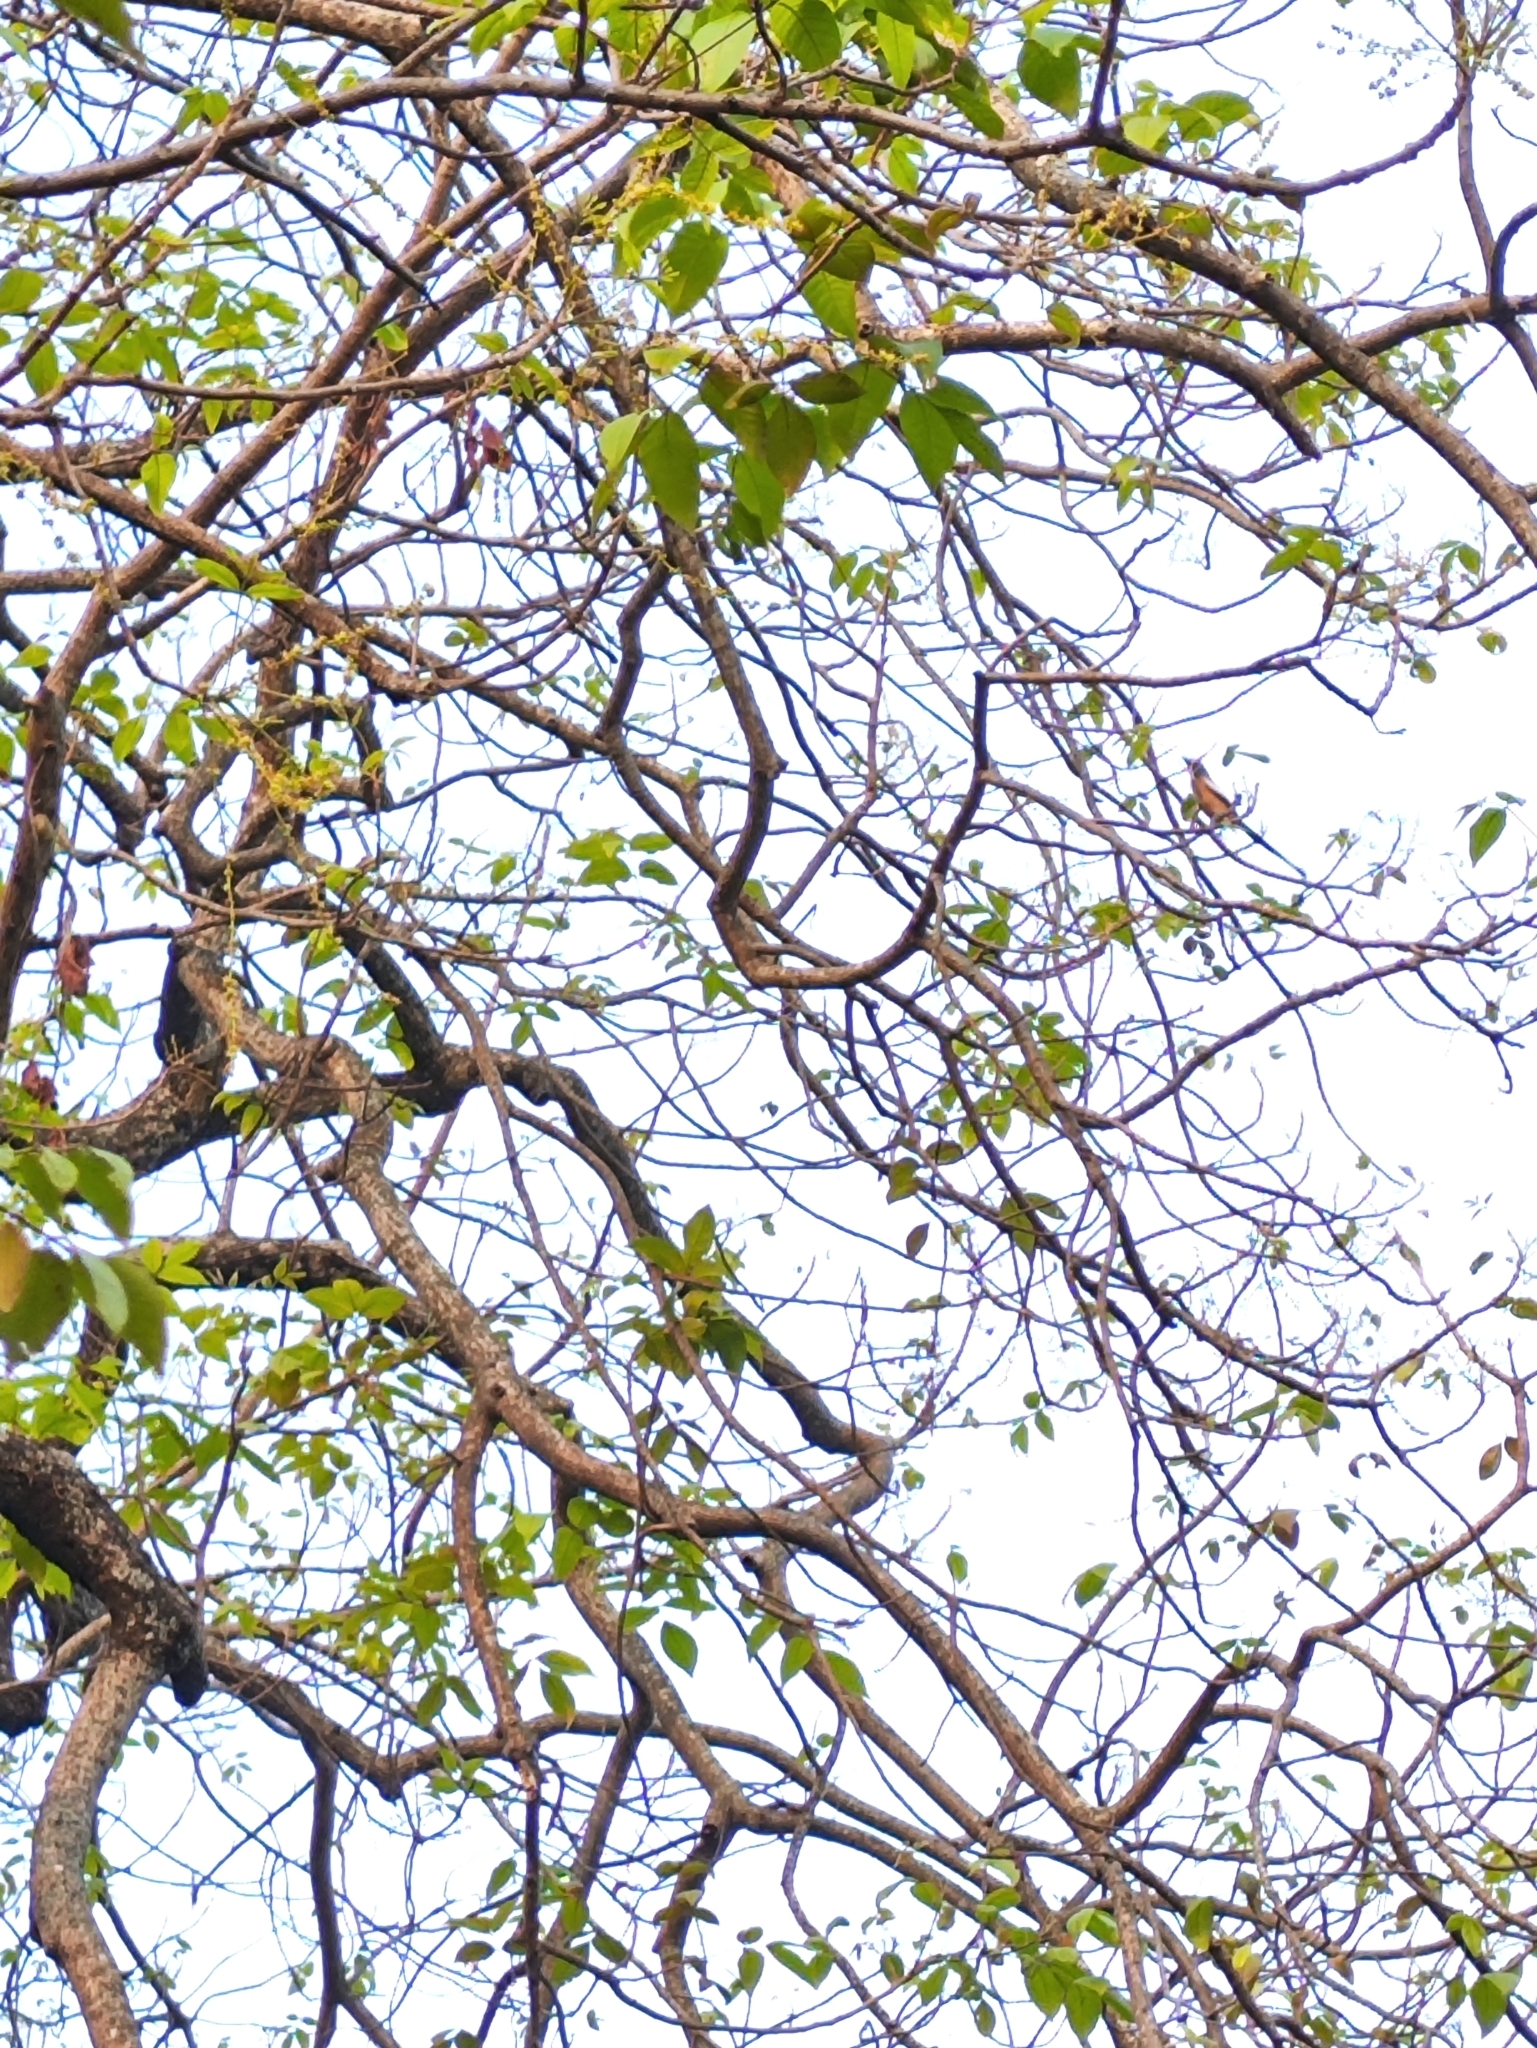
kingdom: Animalia
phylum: Chordata
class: Aves
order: Passeriformes
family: Corvidae
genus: Dendrocitta
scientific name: Dendrocitta vagabunda
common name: Rufous treepie
